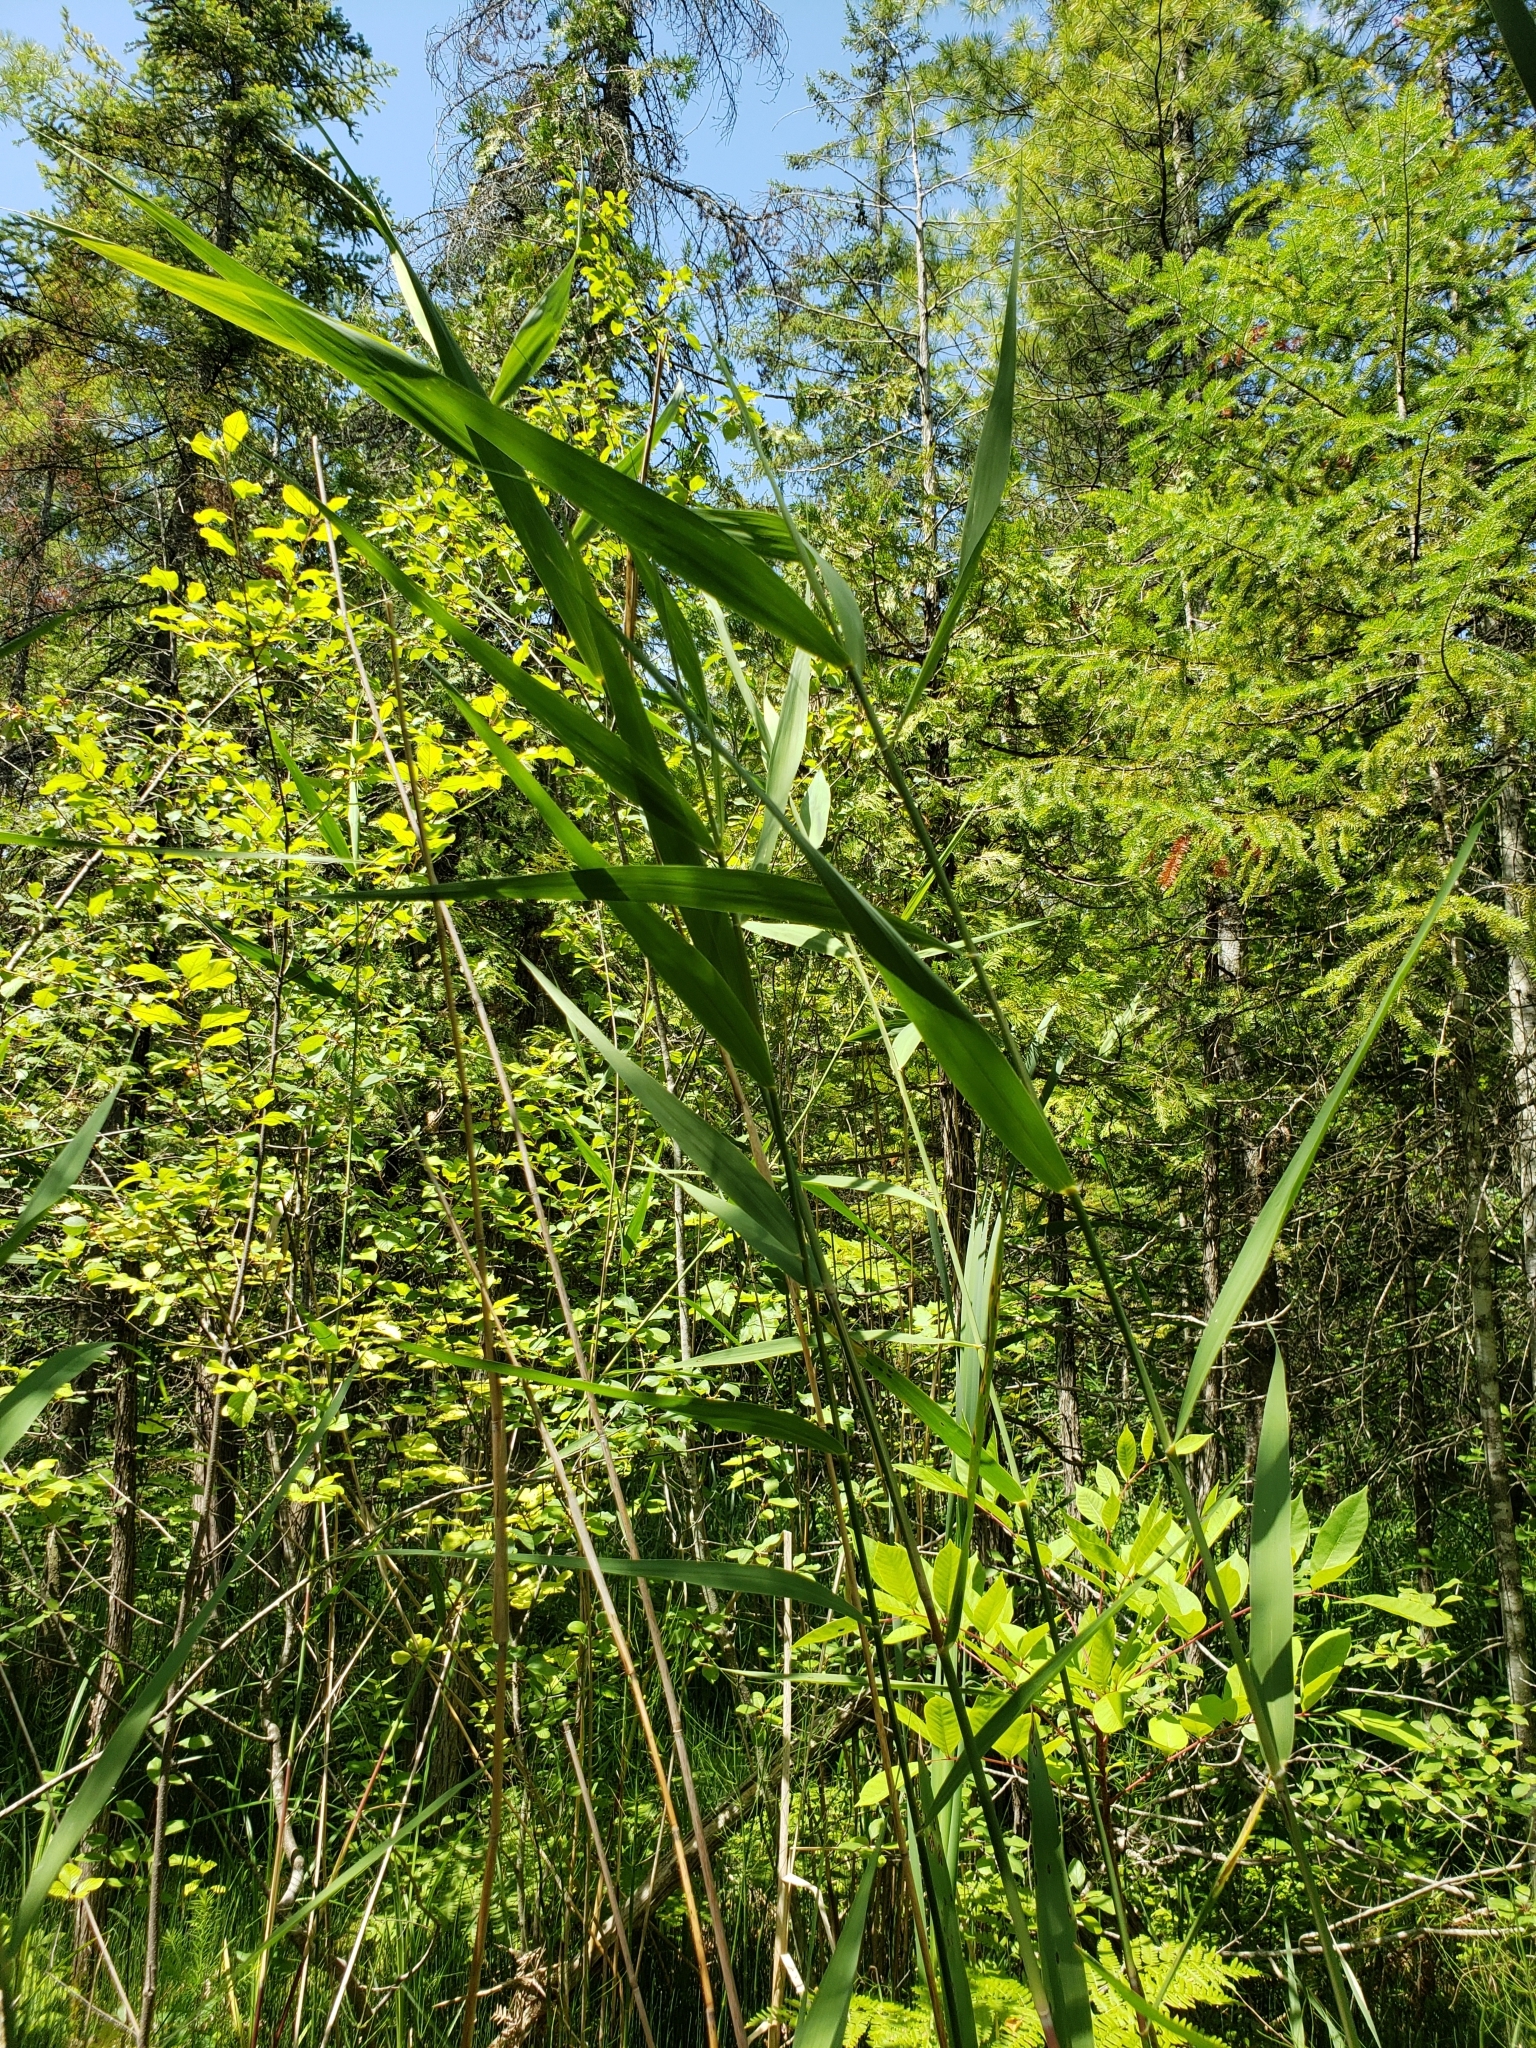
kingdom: Plantae
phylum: Tracheophyta
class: Liliopsida
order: Poales
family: Poaceae
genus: Phragmites
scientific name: Phragmites australis
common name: Common reed
